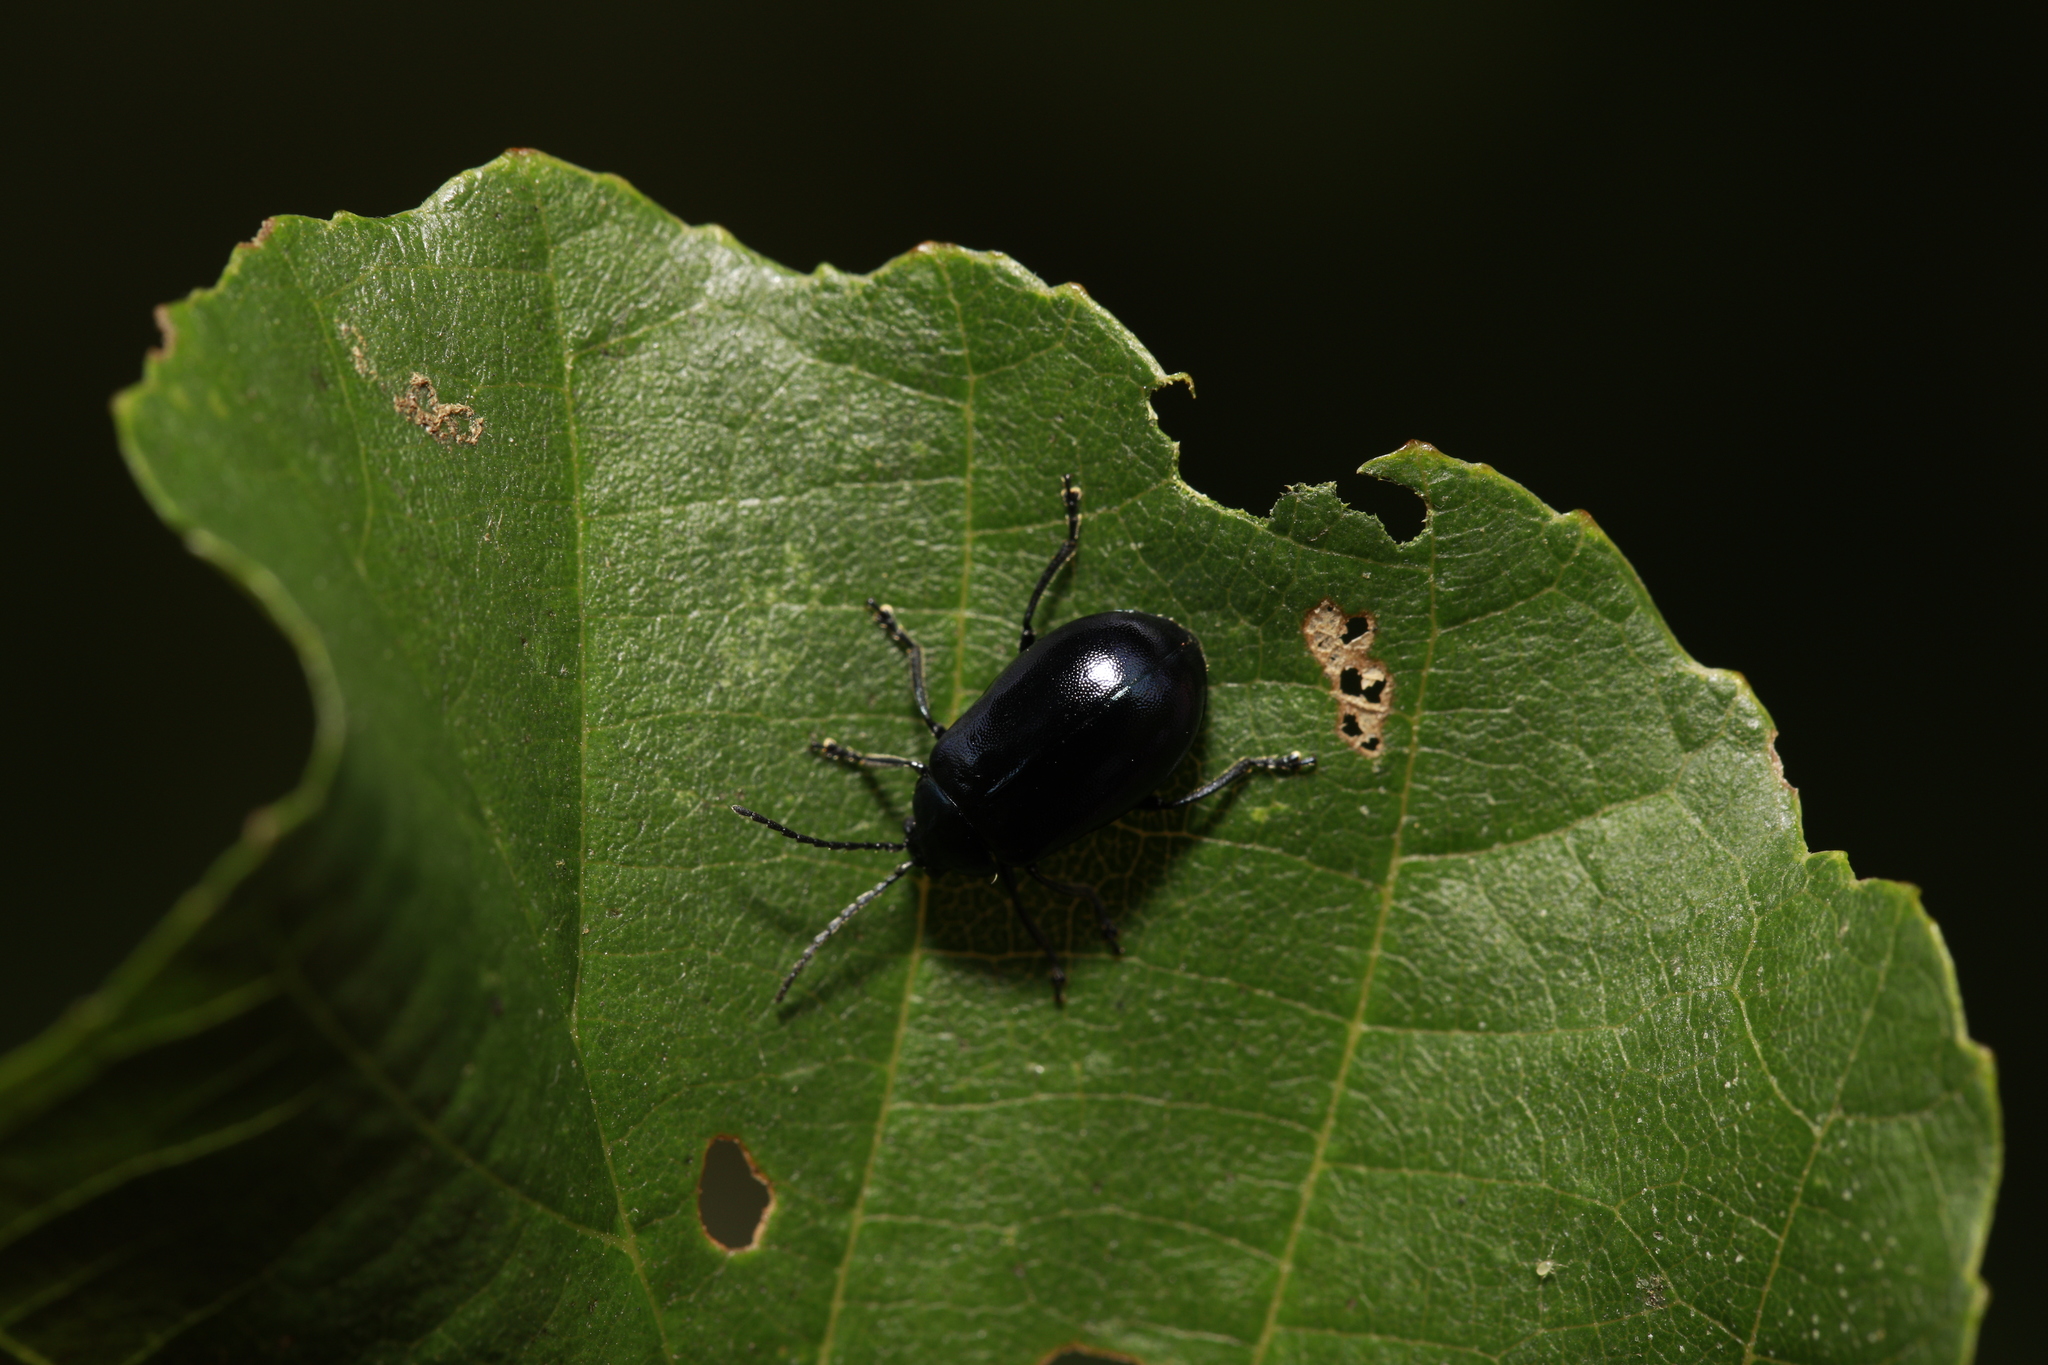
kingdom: Animalia
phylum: Arthropoda
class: Insecta
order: Coleoptera
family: Chrysomelidae
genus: Agelastica
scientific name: Agelastica alni
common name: Alder leaf beetle
